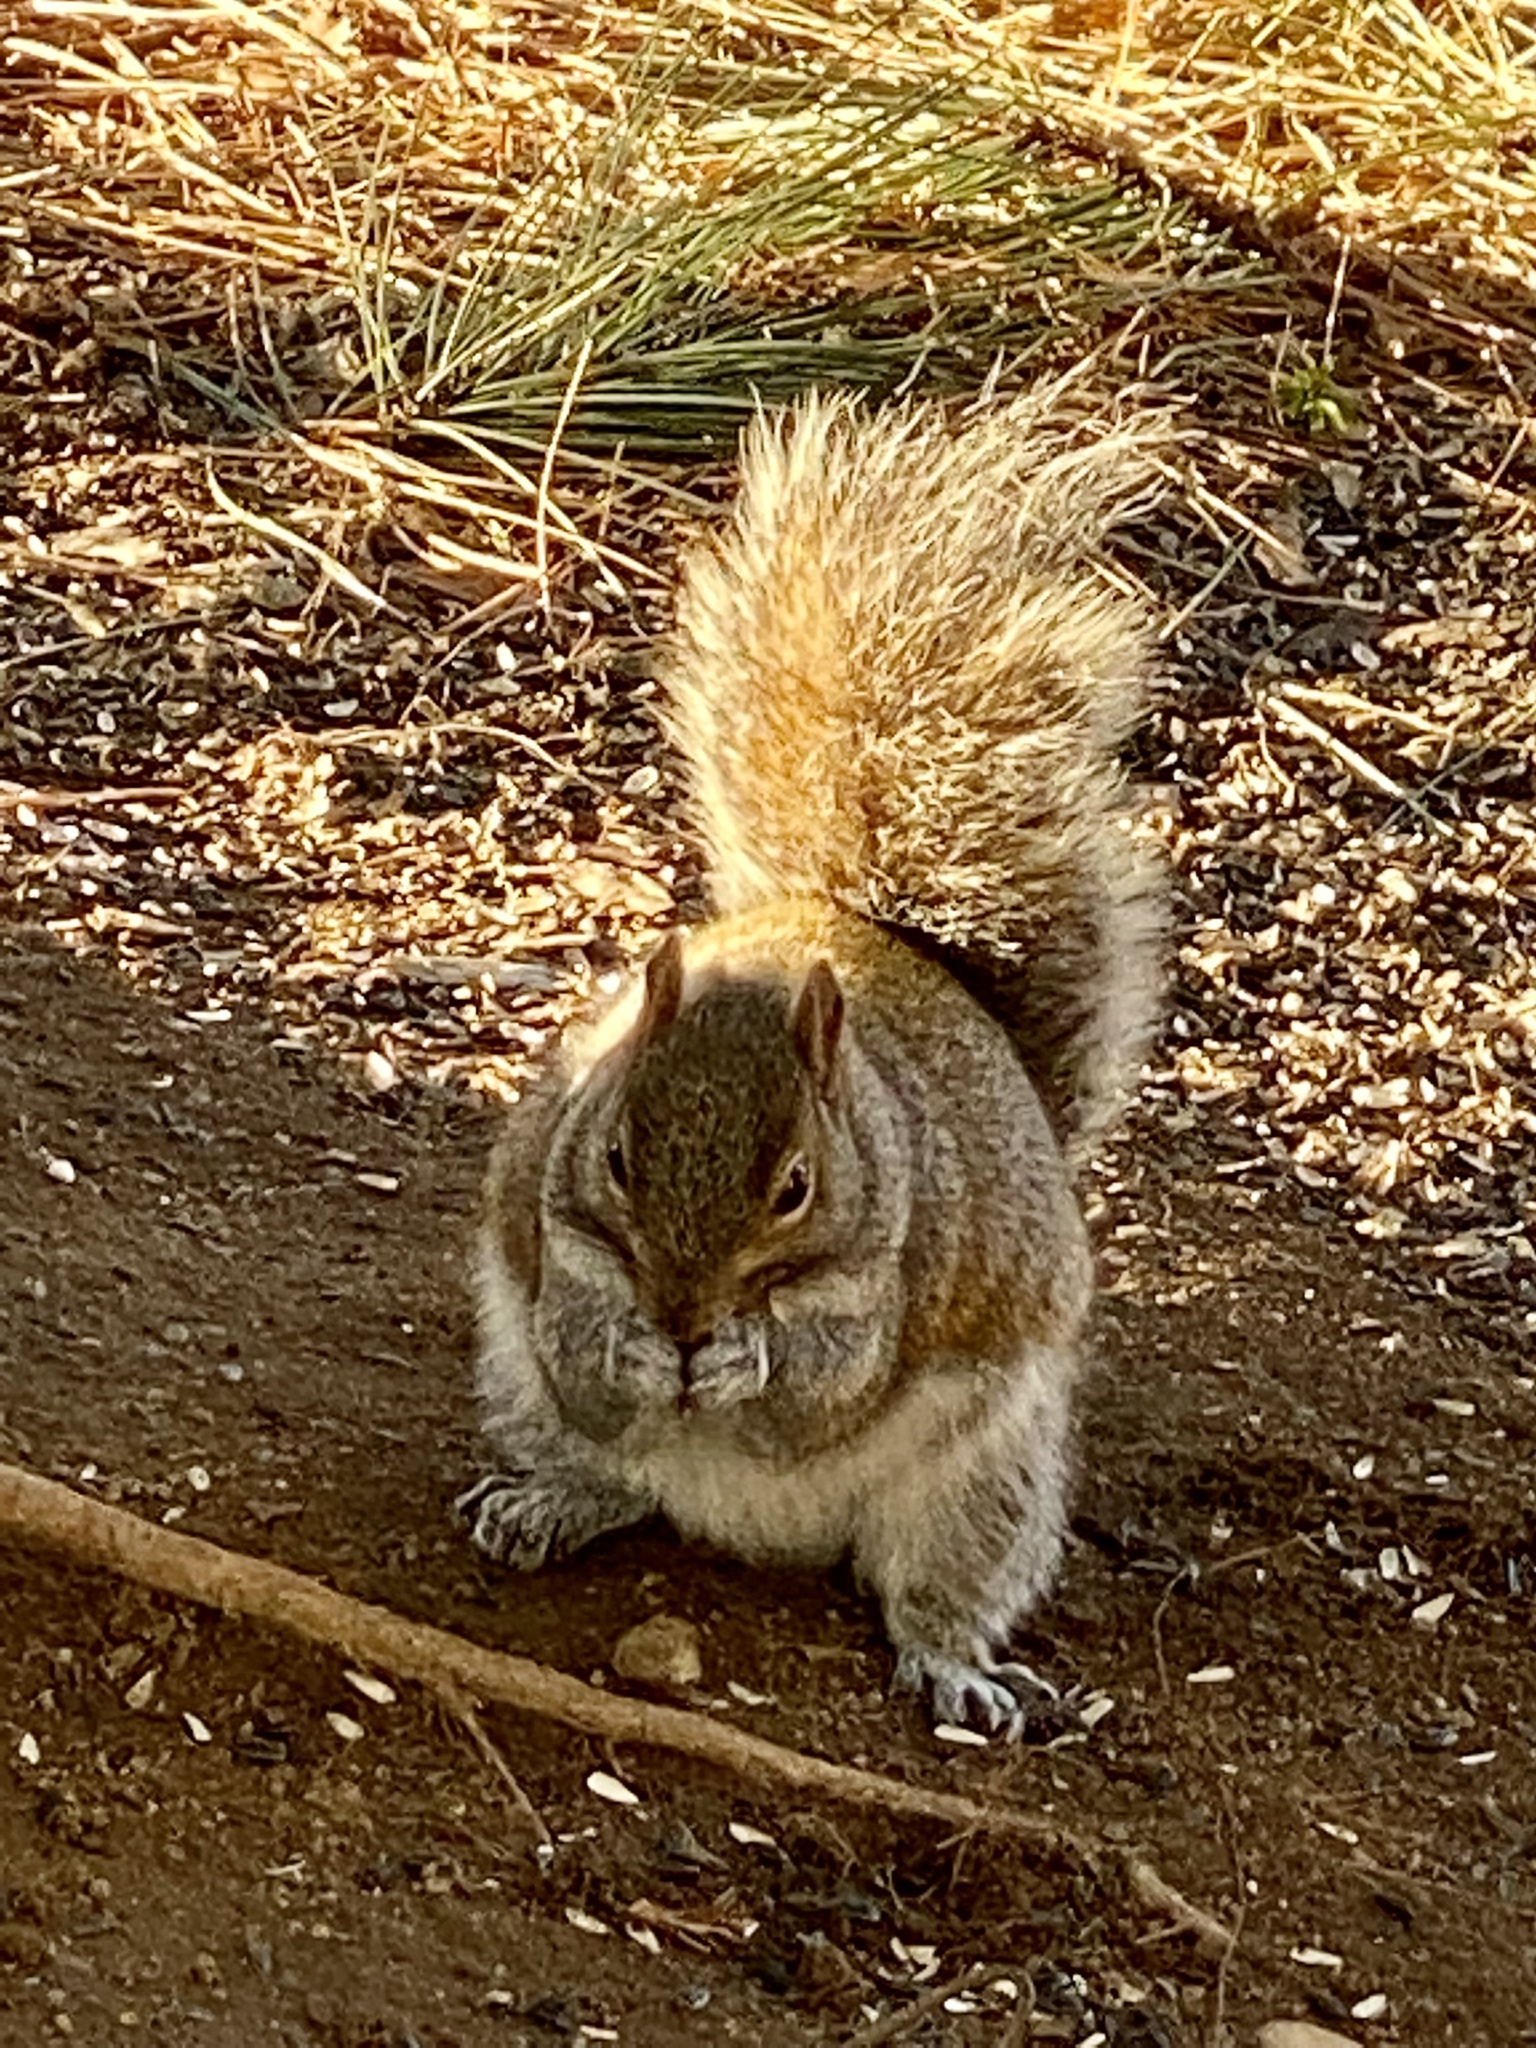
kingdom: Animalia
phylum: Chordata
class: Mammalia
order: Rodentia
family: Sciuridae
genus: Sciurus
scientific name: Sciurus carolinensis
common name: Eastern gray squirrel
